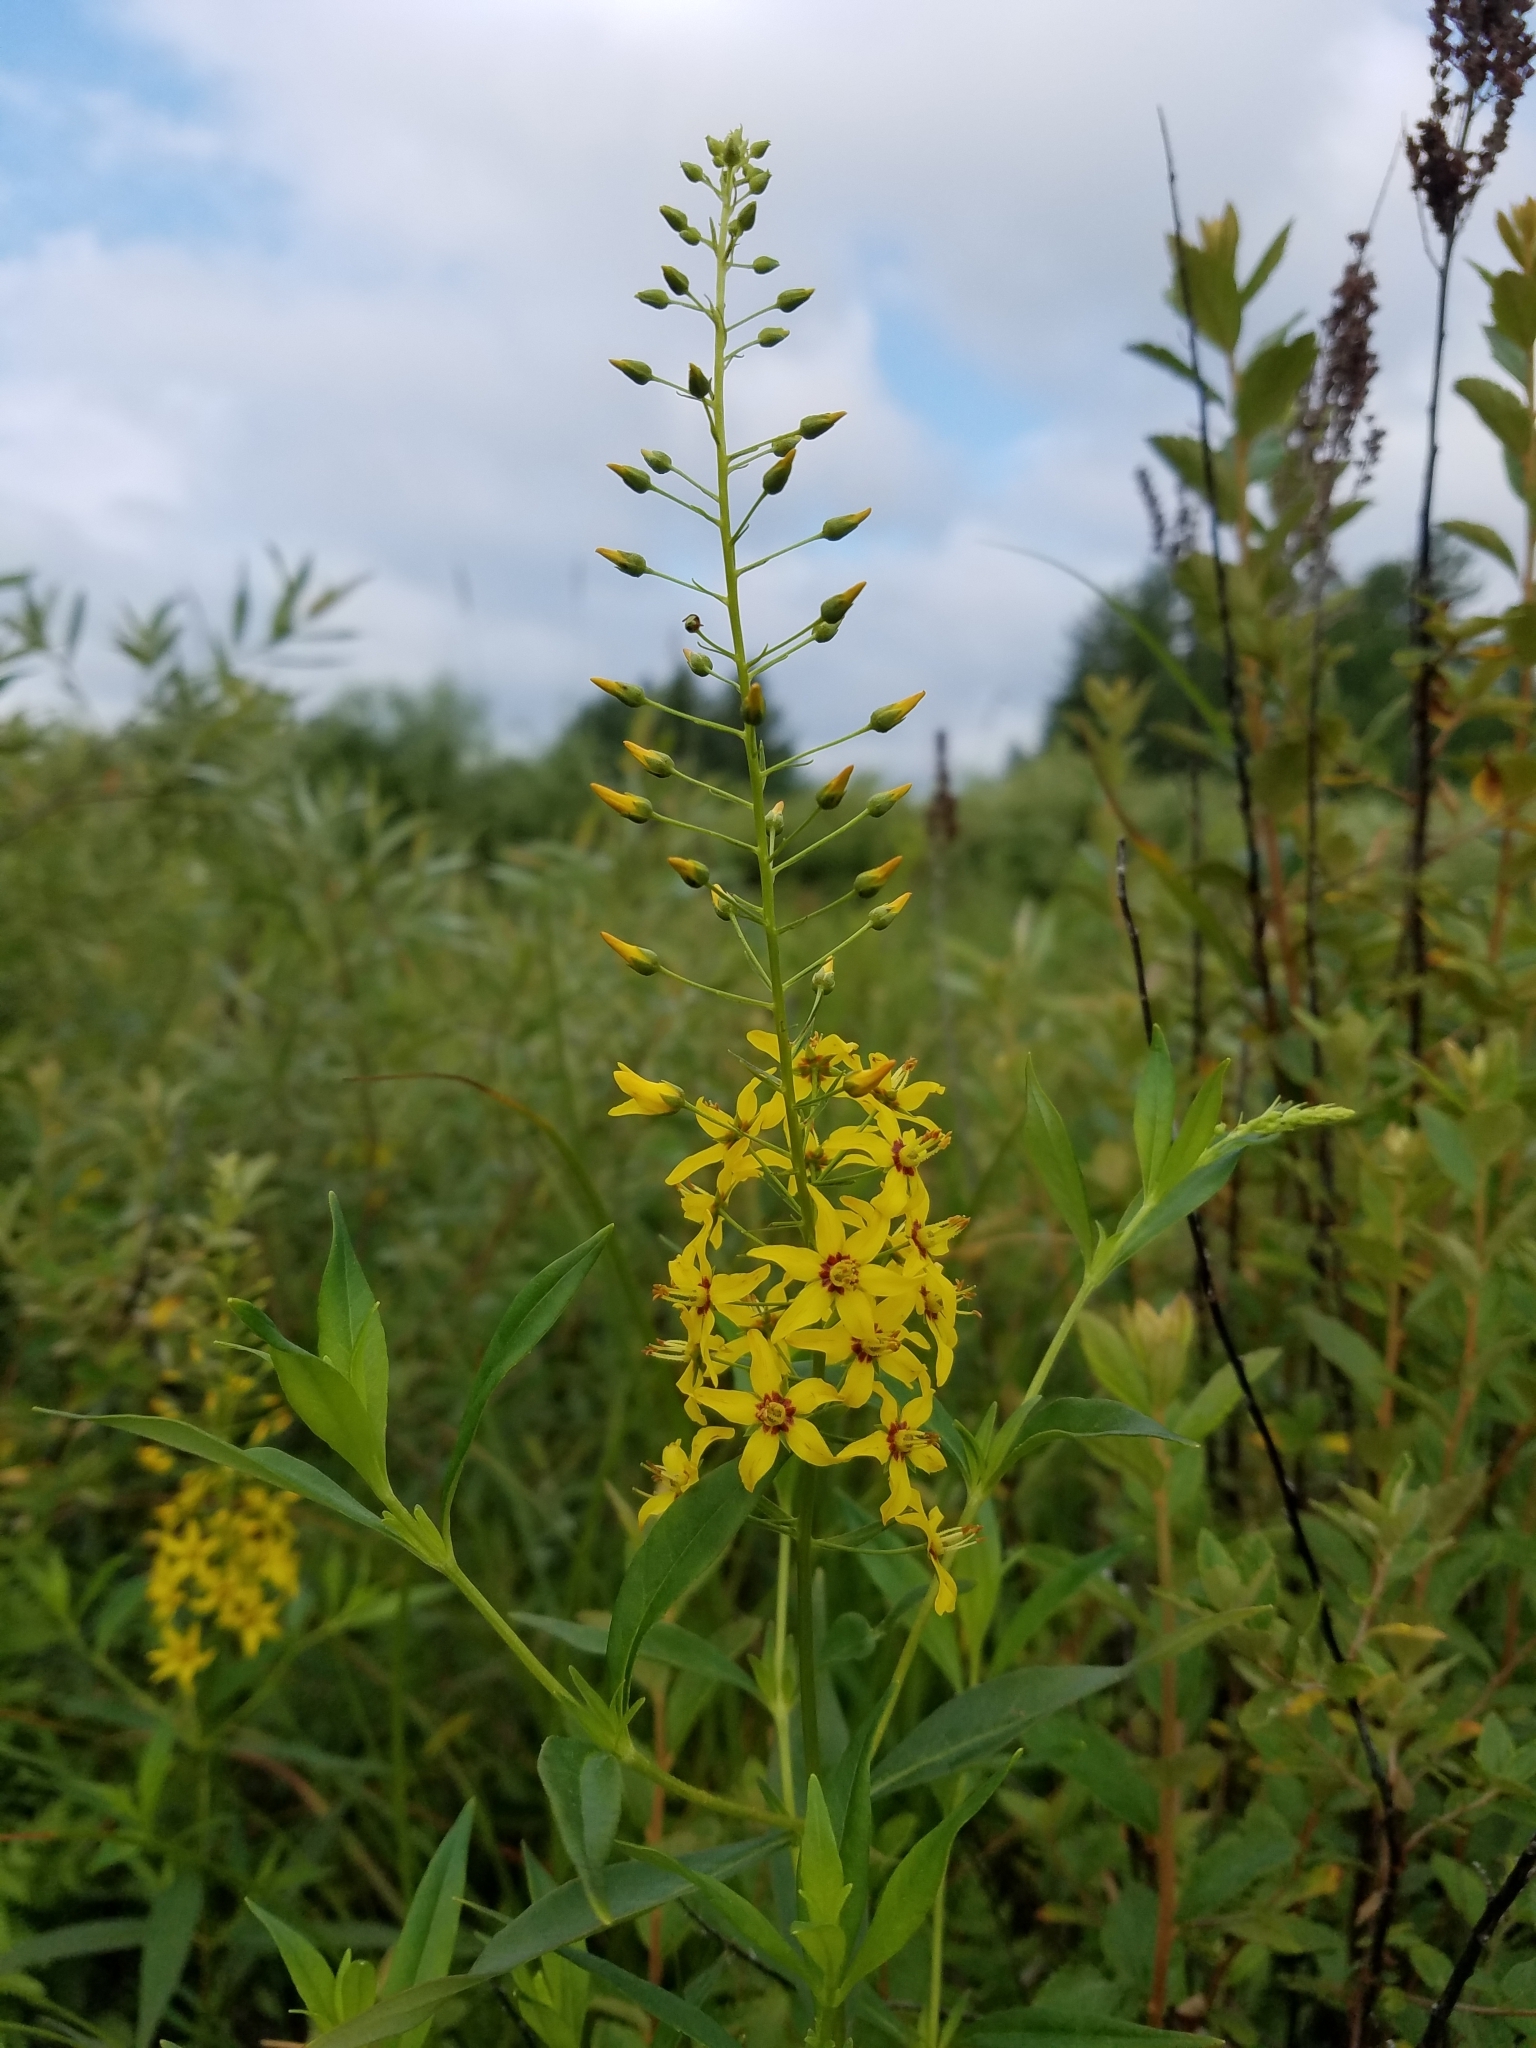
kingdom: Plantae
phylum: Tracheophyta
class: Magnoliopsida
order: Ericales
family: Primulaceae
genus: Lysimachia
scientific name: Lysimachia terrestris
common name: Lake loosestrife
